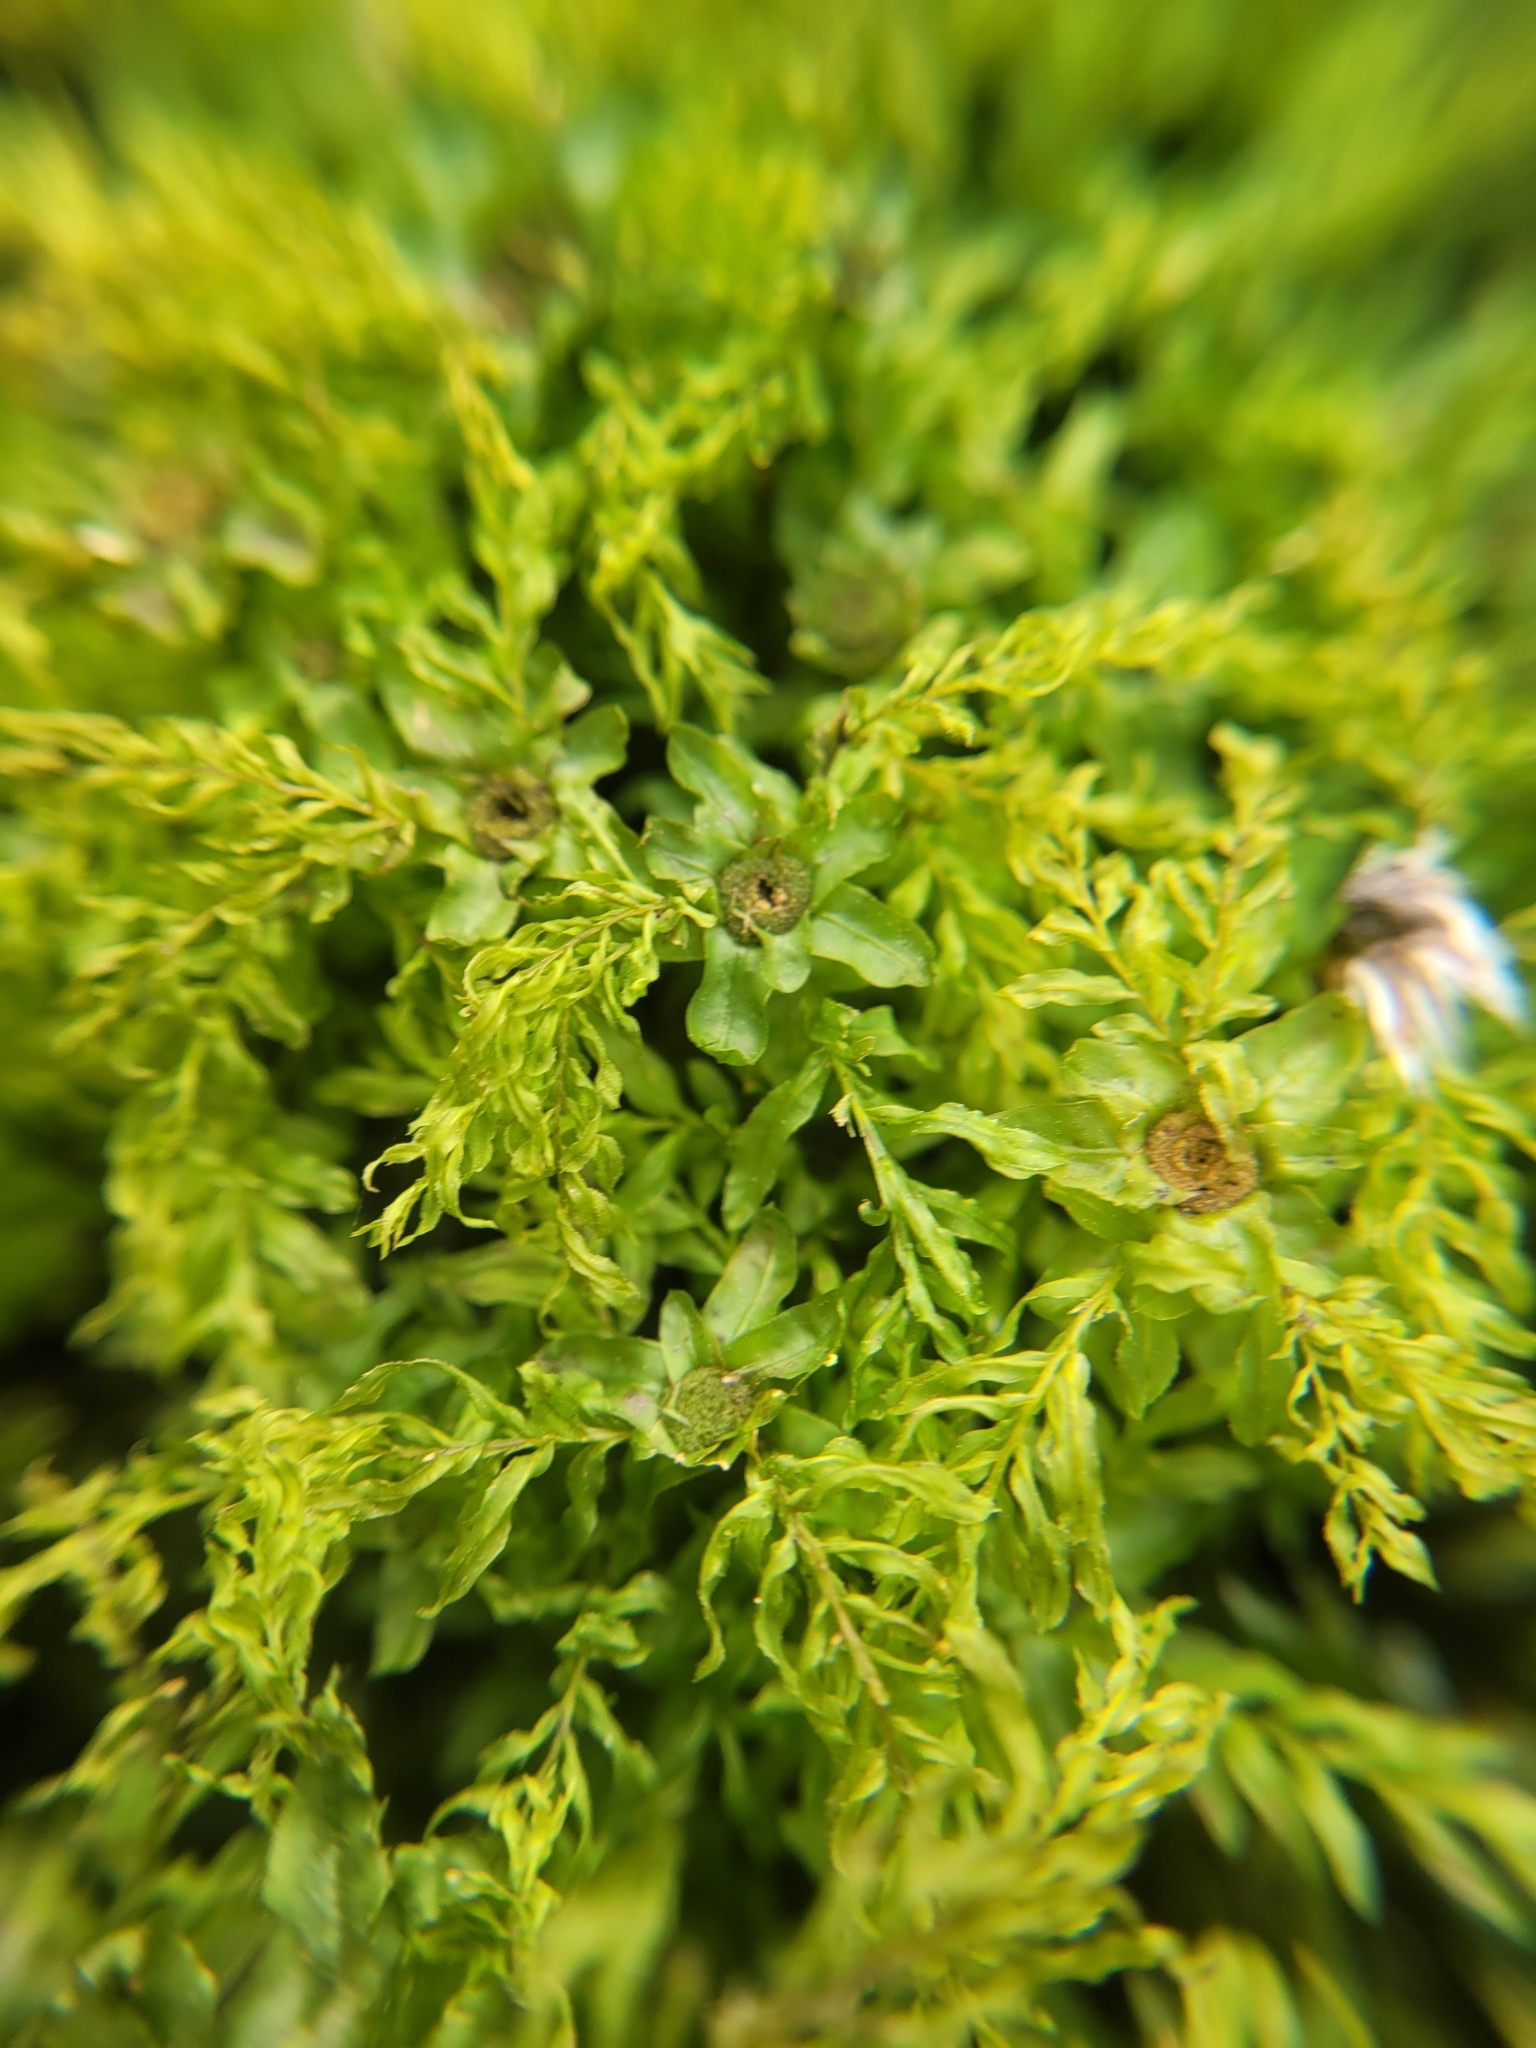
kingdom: Plantae
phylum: Bryophyta
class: Bryopsida
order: Bryales
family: Mniaceae
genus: Plagiomnium
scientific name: Plagiomnium undulatum
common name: Hart's-tongue thyme-moss
